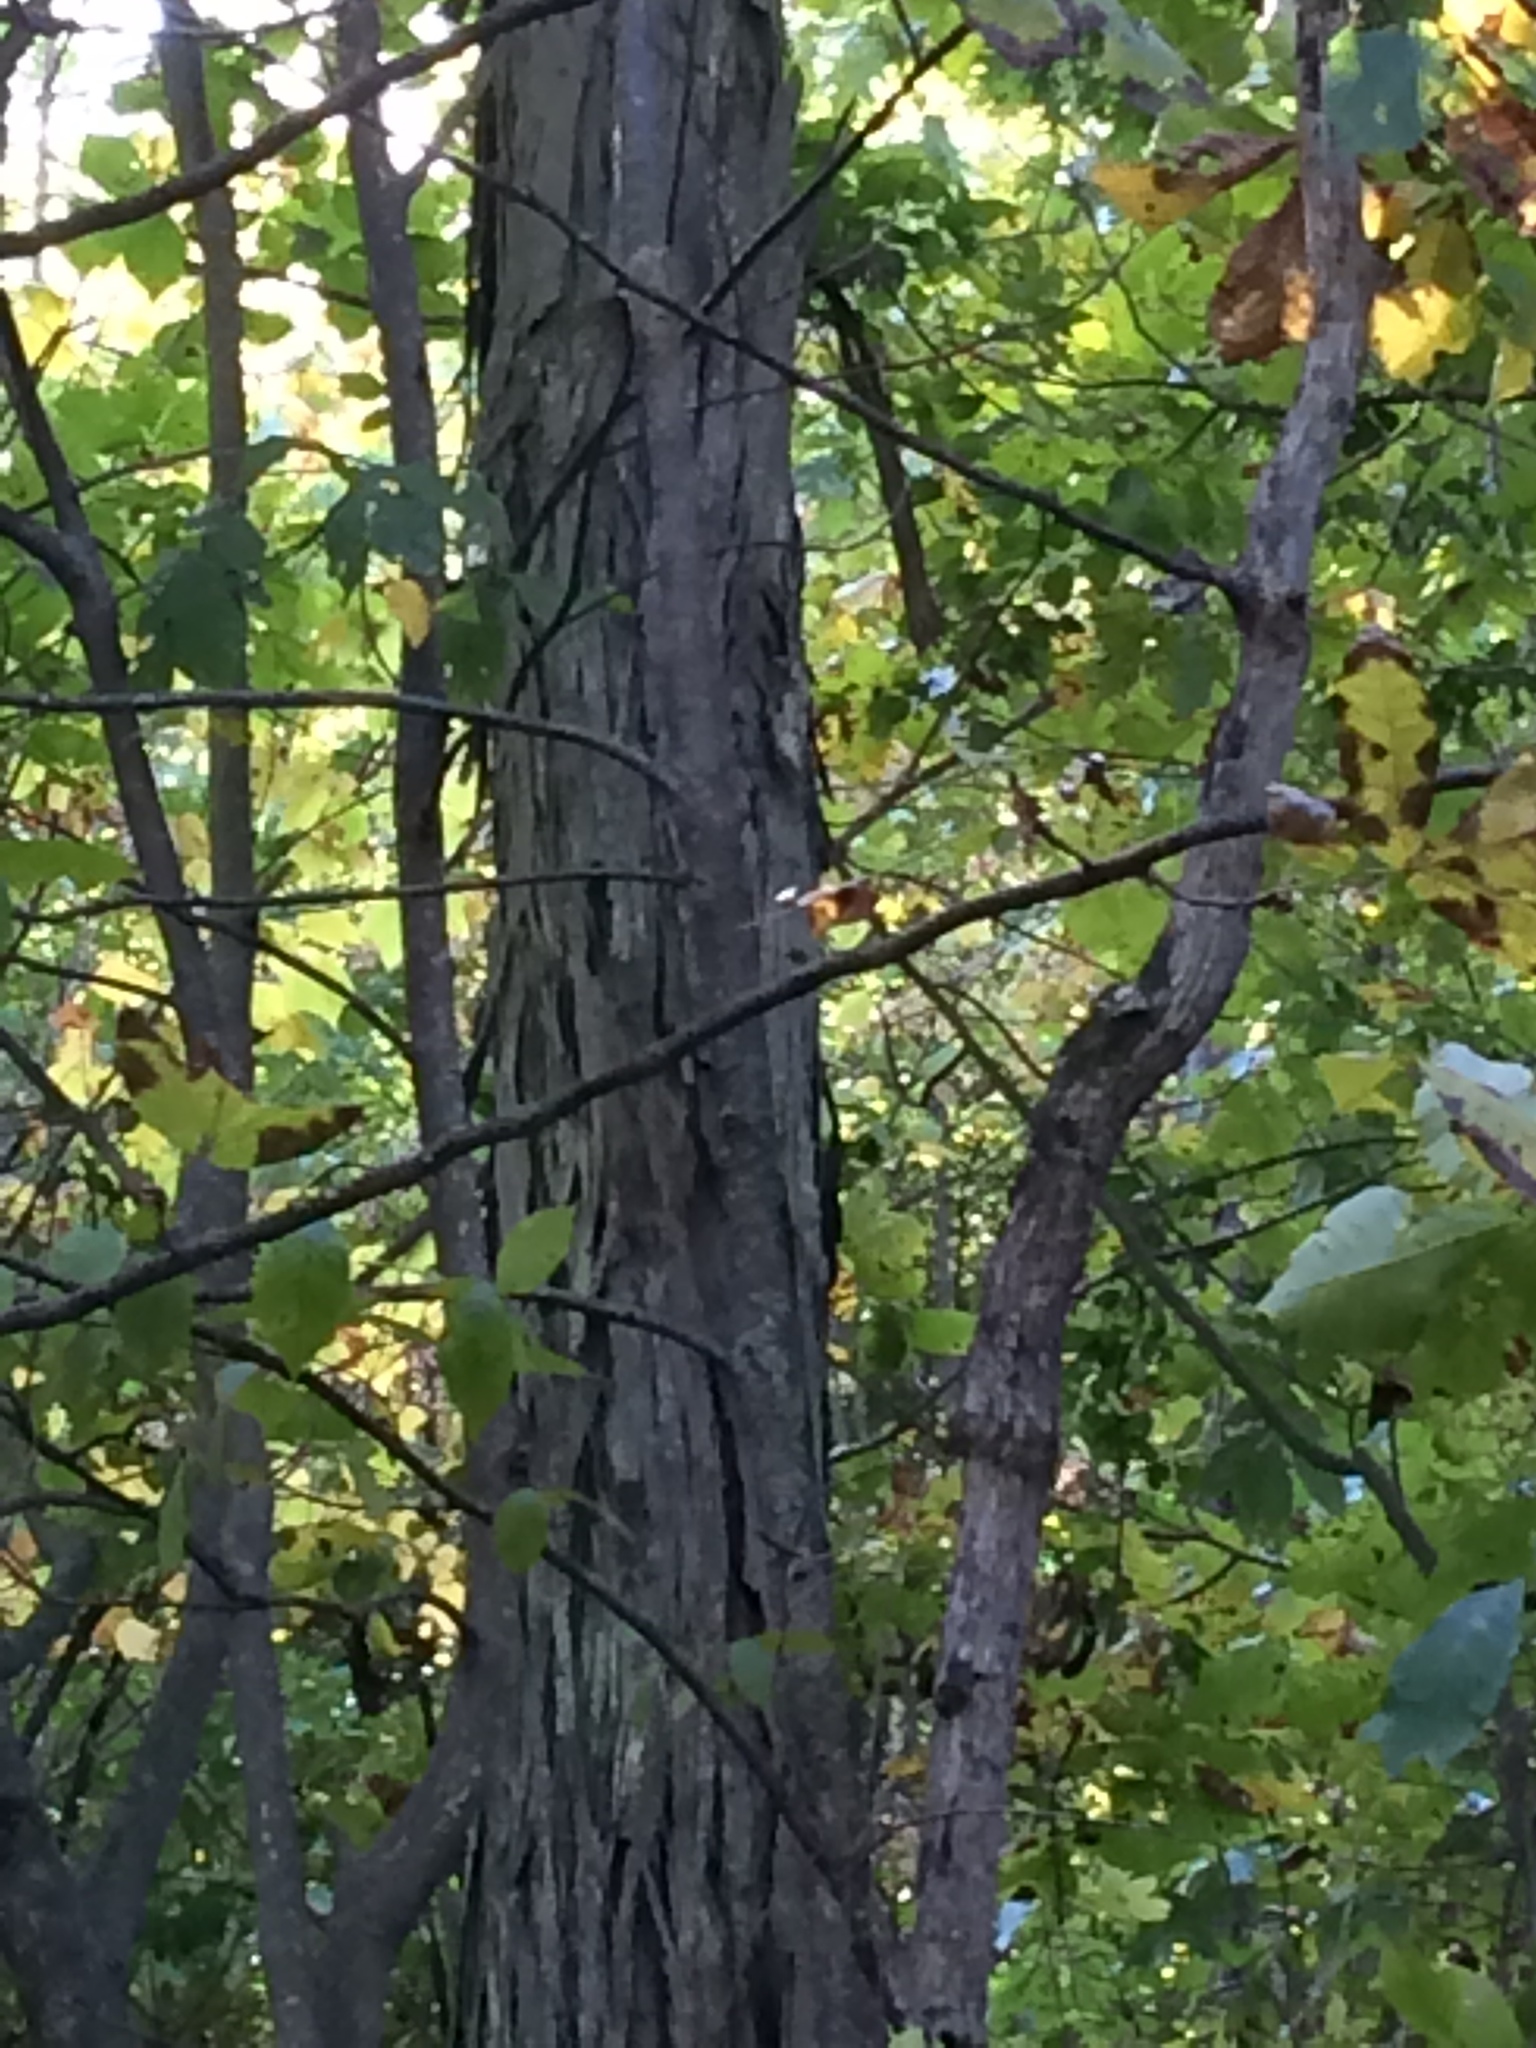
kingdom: Plantae
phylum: Tracheophyta
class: Magnoliopsida
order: Fagales
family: Juglandaceae
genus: Carya
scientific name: Carya ovata
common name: Shagbark hickory
